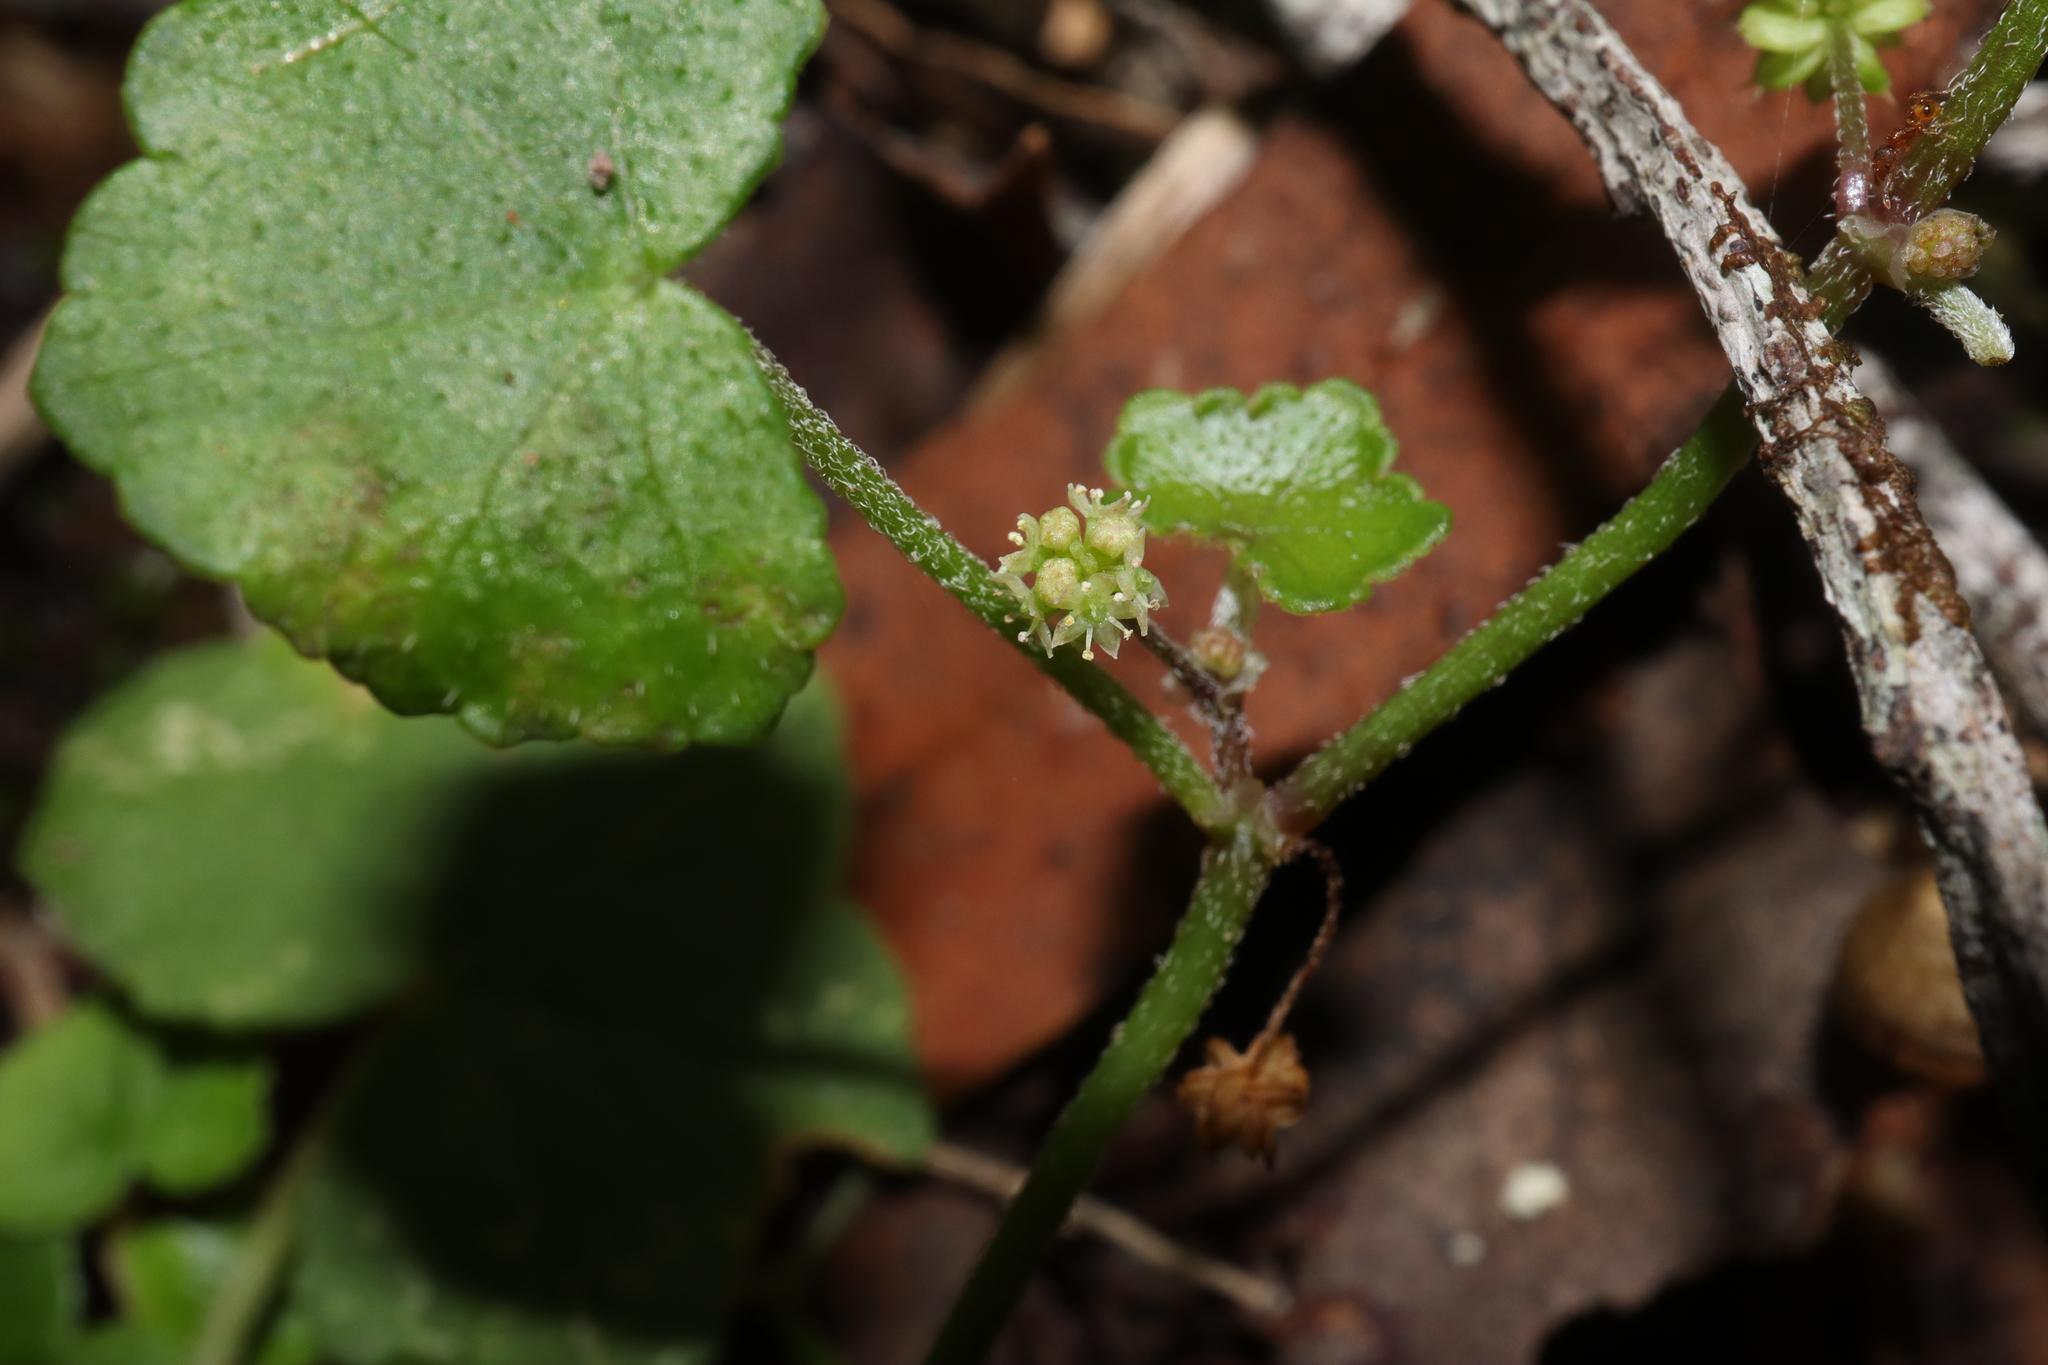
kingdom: Plantae
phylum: Tracheophyta
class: Magnoliopsida
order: Apiales
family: Araliaceae
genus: Hydrocotyle
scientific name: Hydrocotyle hirta
